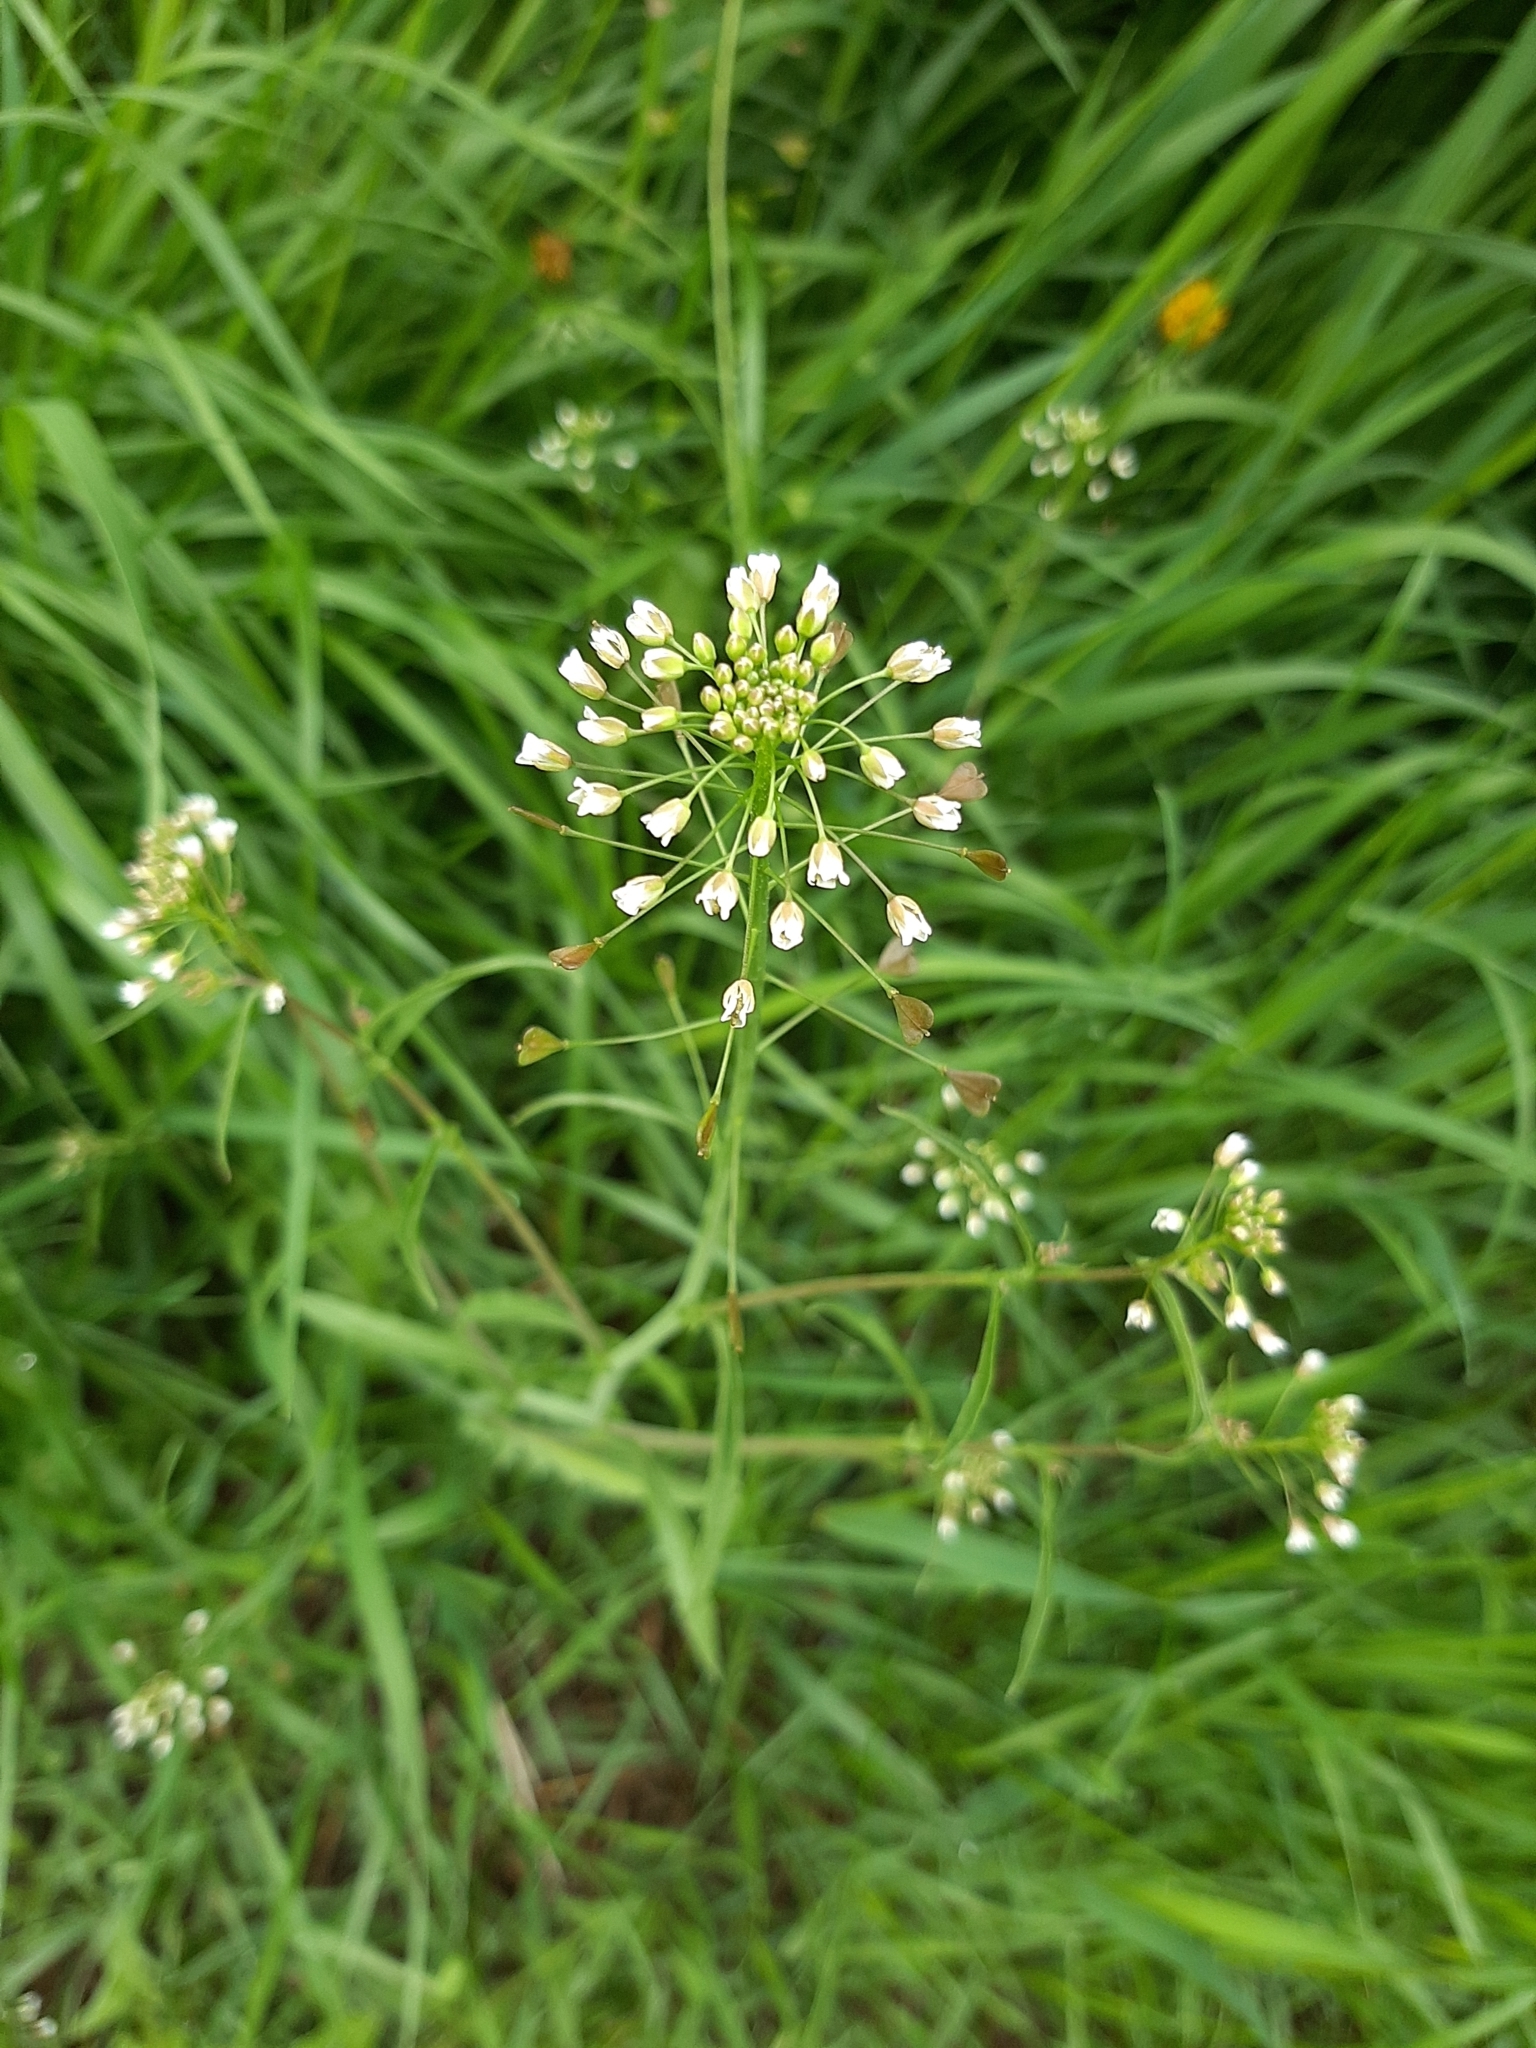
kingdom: Plantae
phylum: Tracheophyta
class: Magnoliopsida
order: Brassicales
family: Brassicaceae
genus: Capsella
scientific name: Capsella bursa-pastoris
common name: Shepherd's purse
